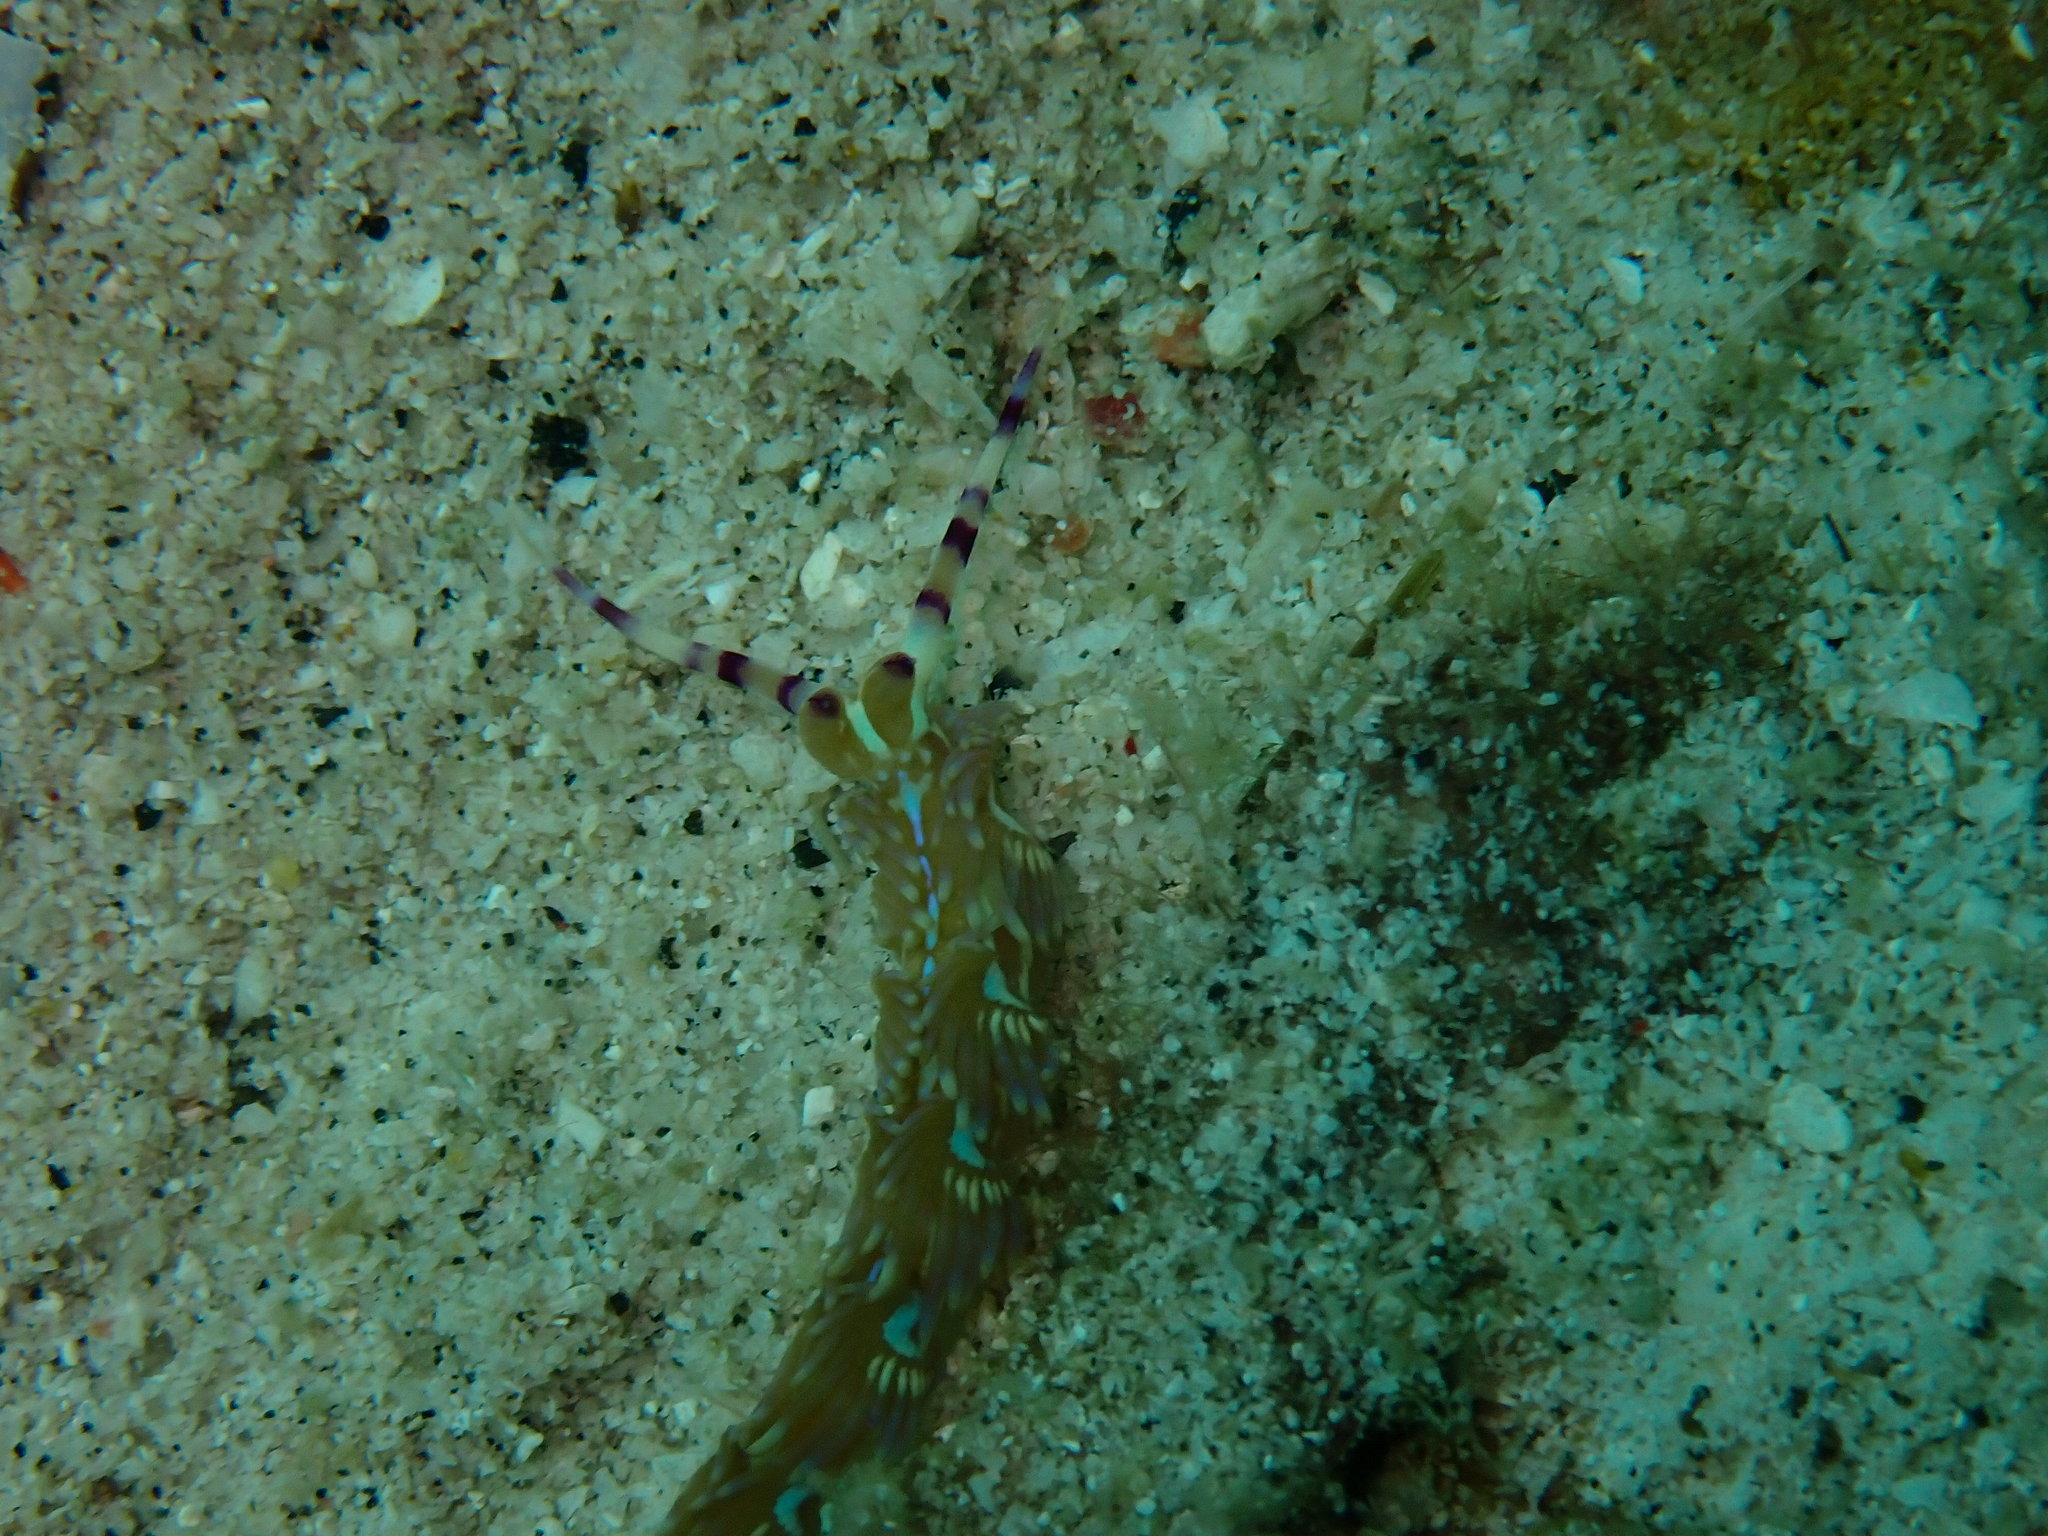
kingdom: Animalia
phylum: Mollusca
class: Gastropoda
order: Nudibranchia
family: Facelinidae
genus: Pteraeolidia
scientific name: Pteraeolidia semperi
